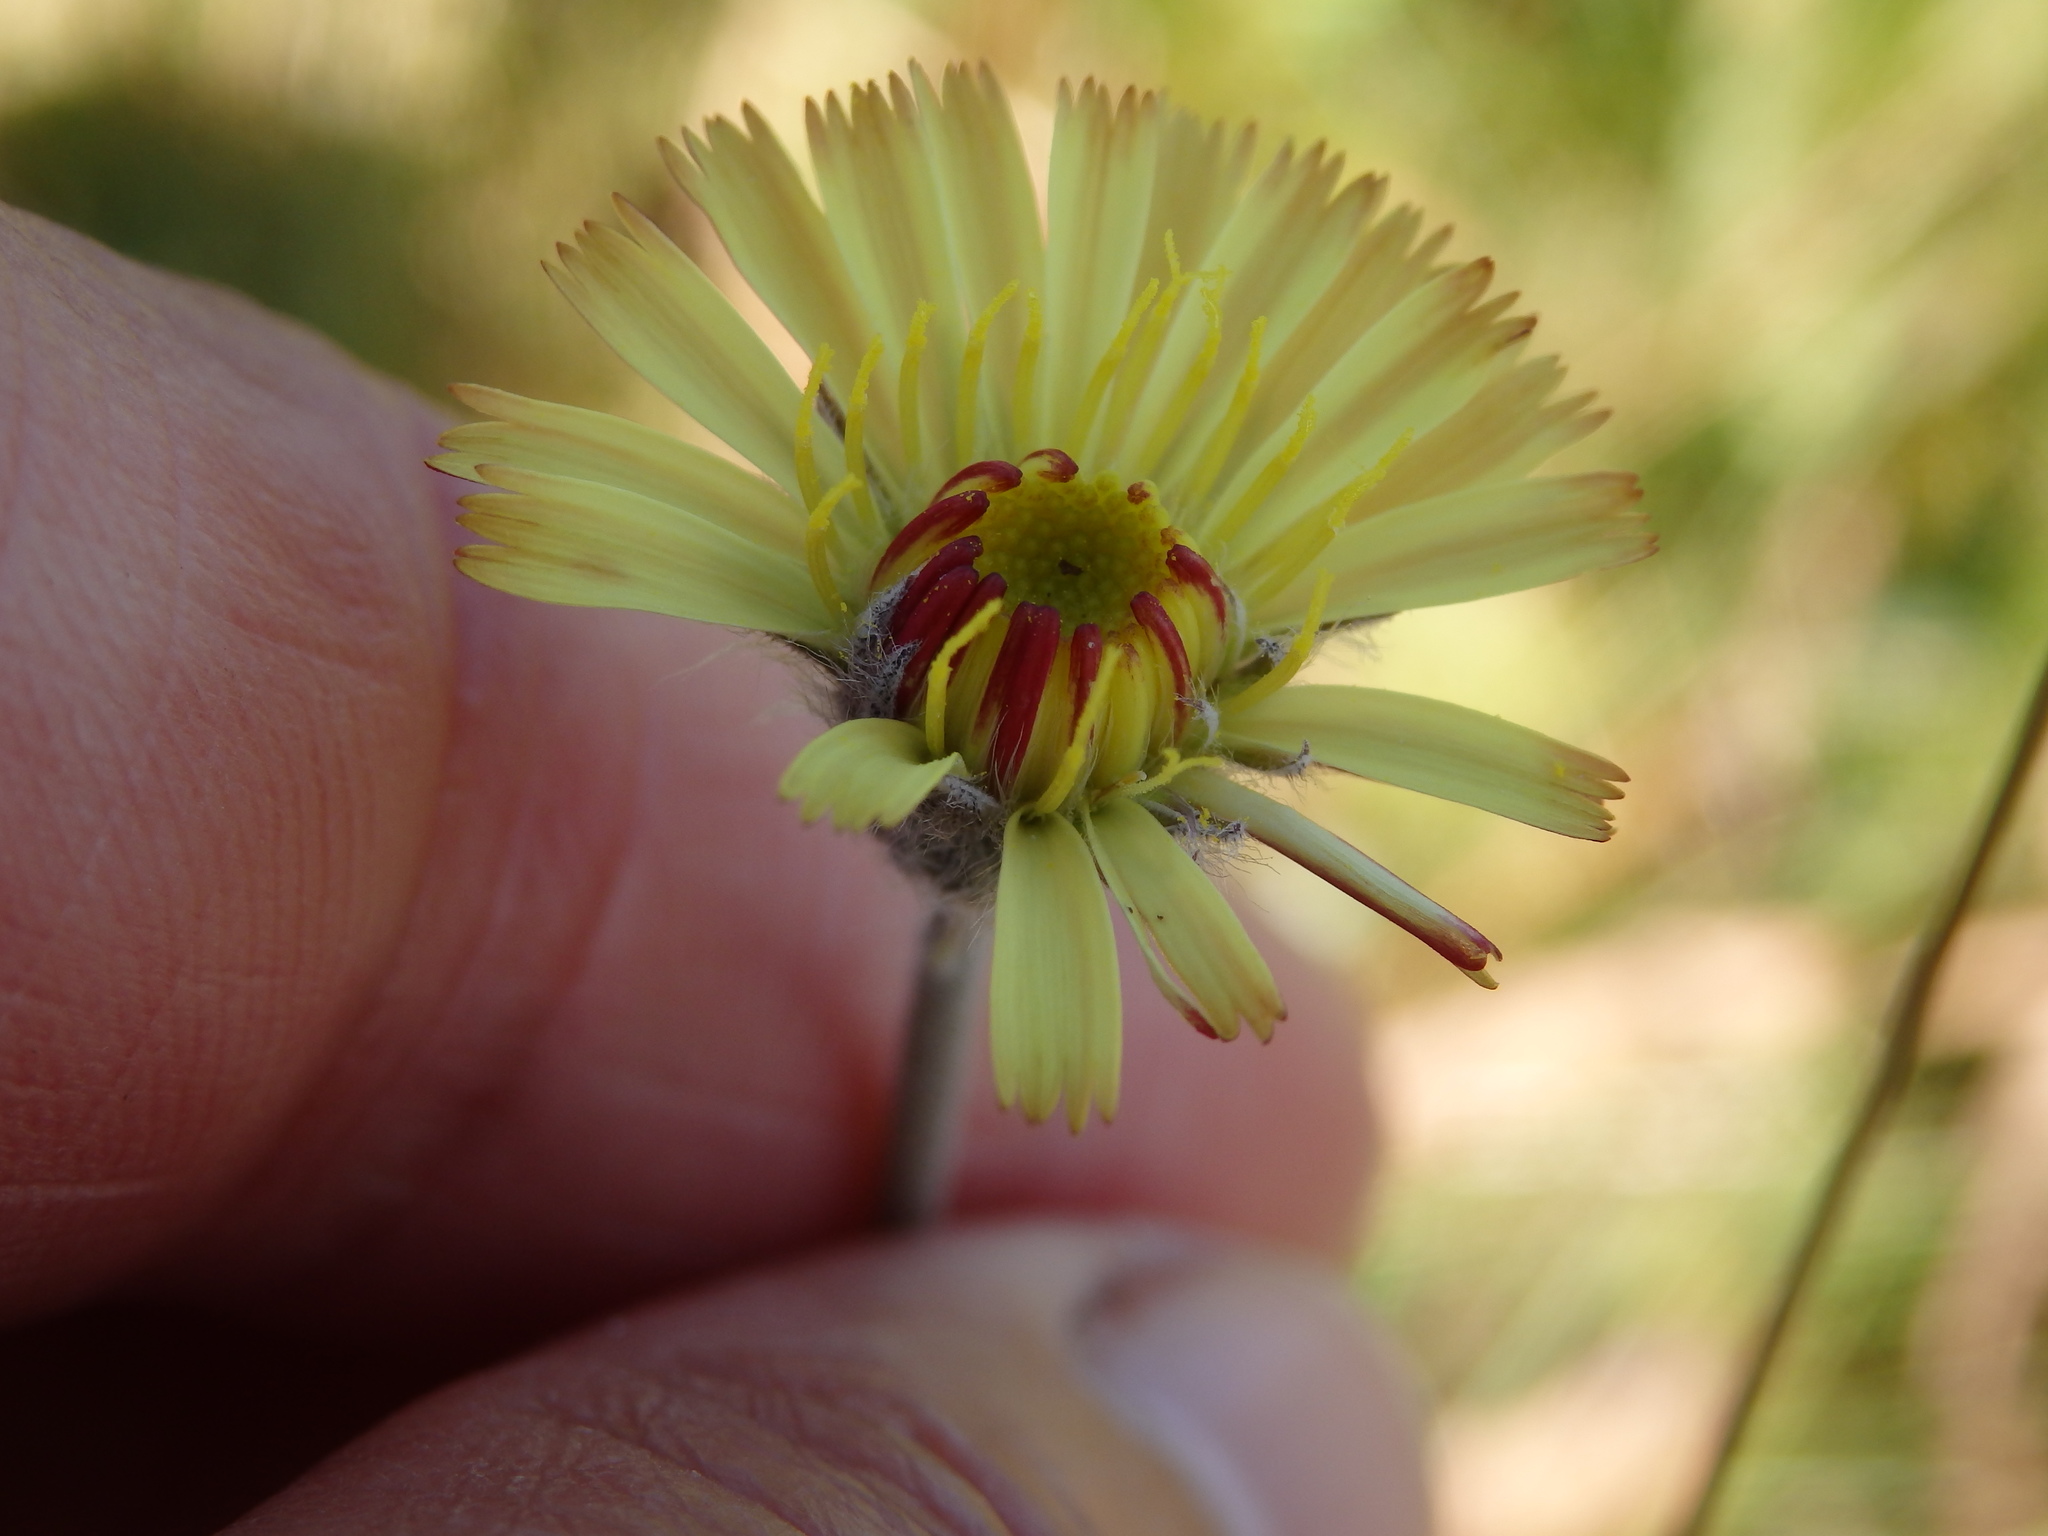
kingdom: Plantae
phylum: Tracheophyta
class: Magnoliopsida
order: Asterales
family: Asteraceae
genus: Pilosella
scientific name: Pilosella pseudopilosella
